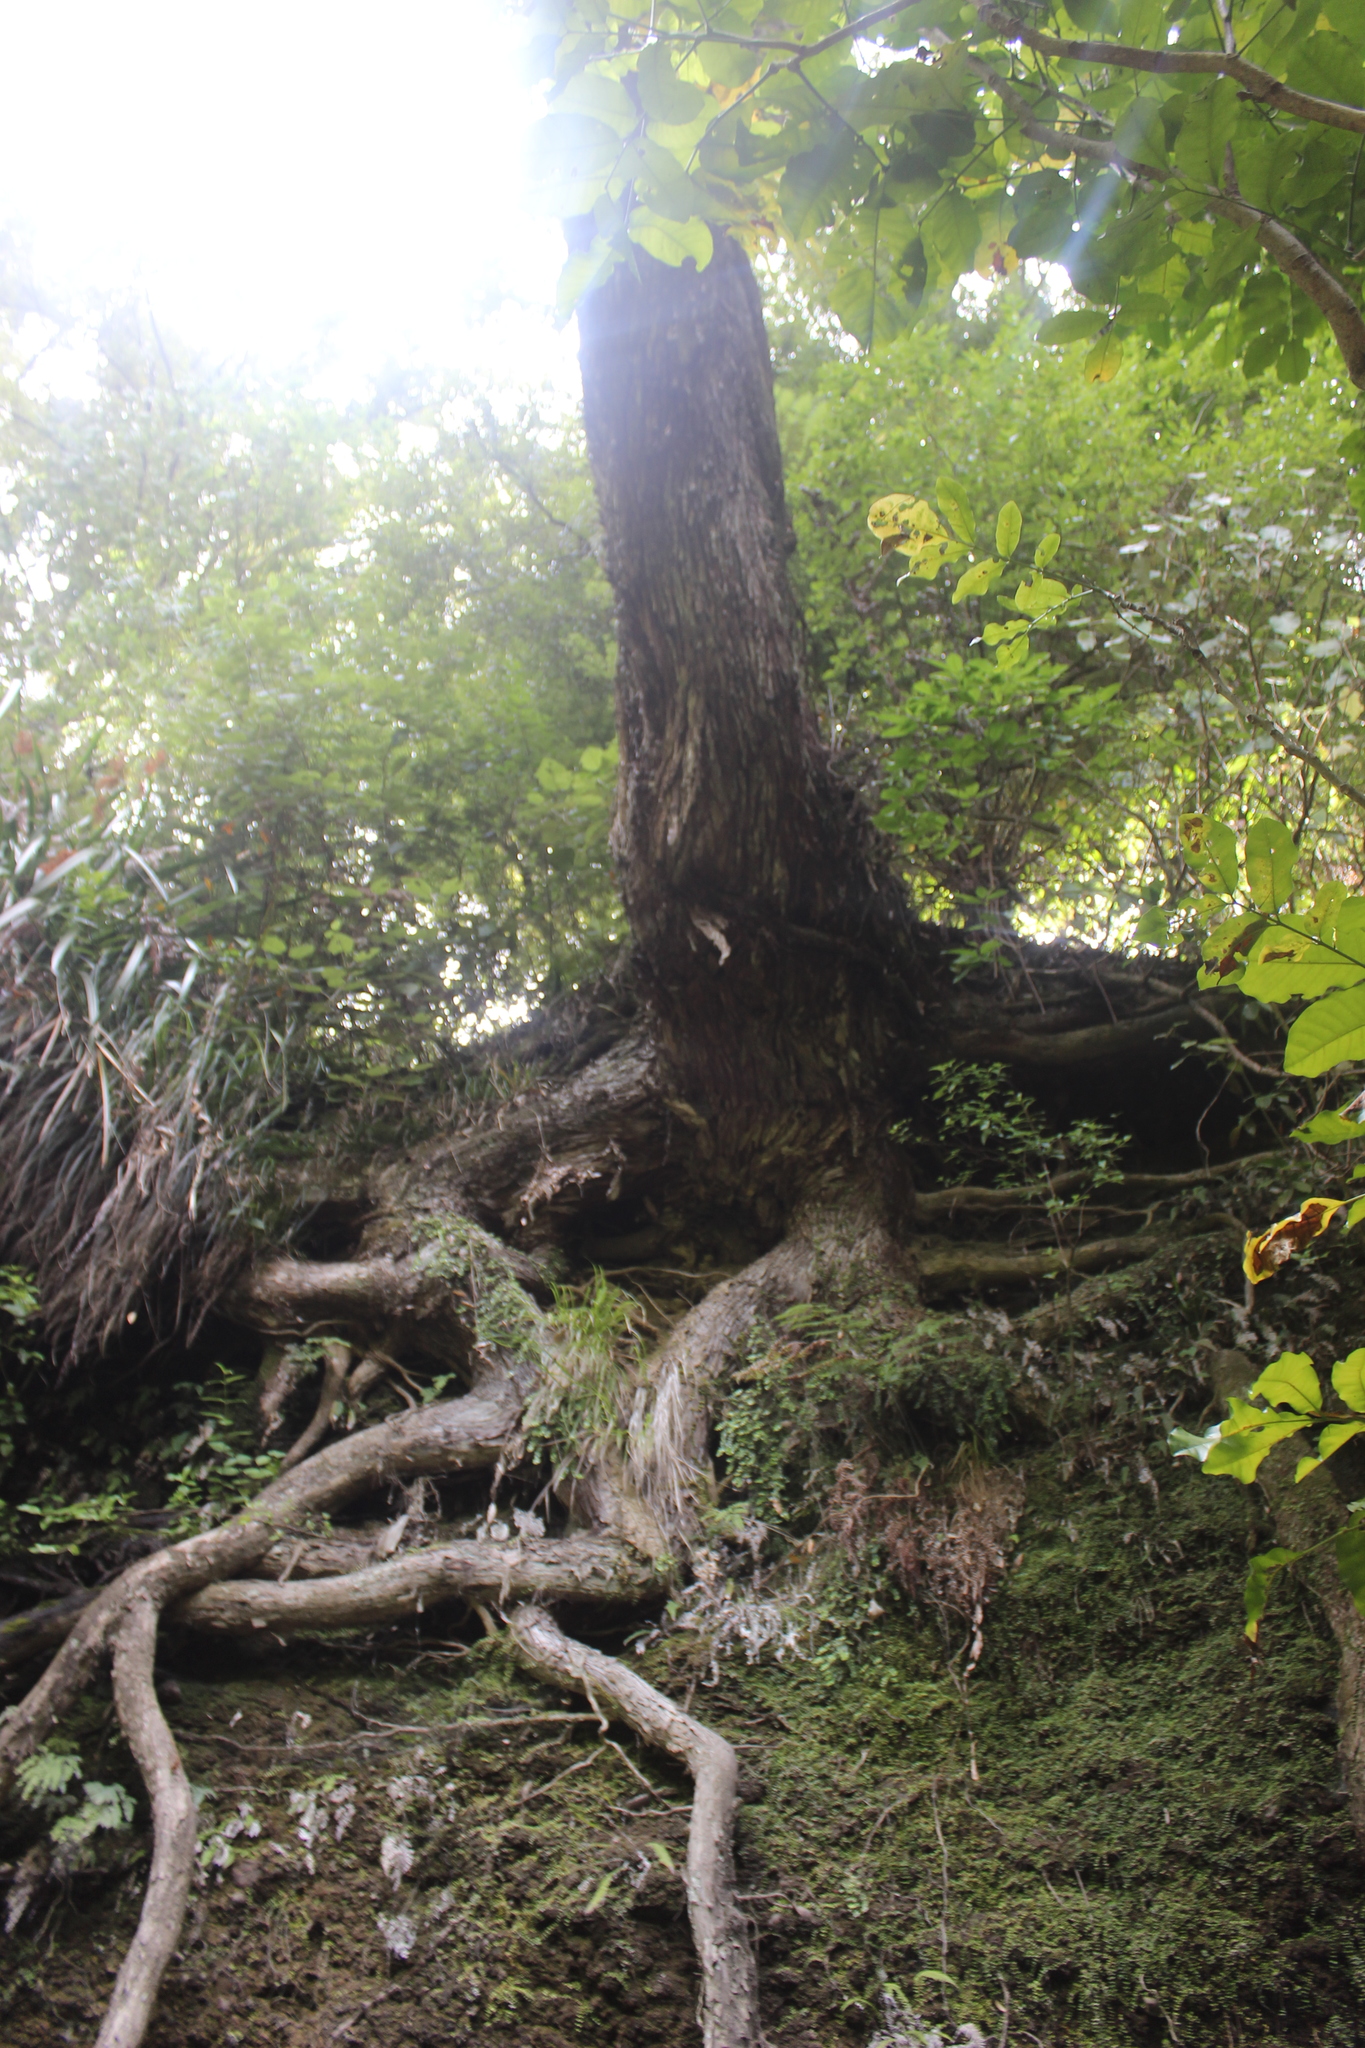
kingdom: Plantae
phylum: Tracheophyta
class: Magnoliopsida
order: Myrtales
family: Myrtaceae
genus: Metrosideros
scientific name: Metrosideros excelsa
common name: New zealand christmastree
